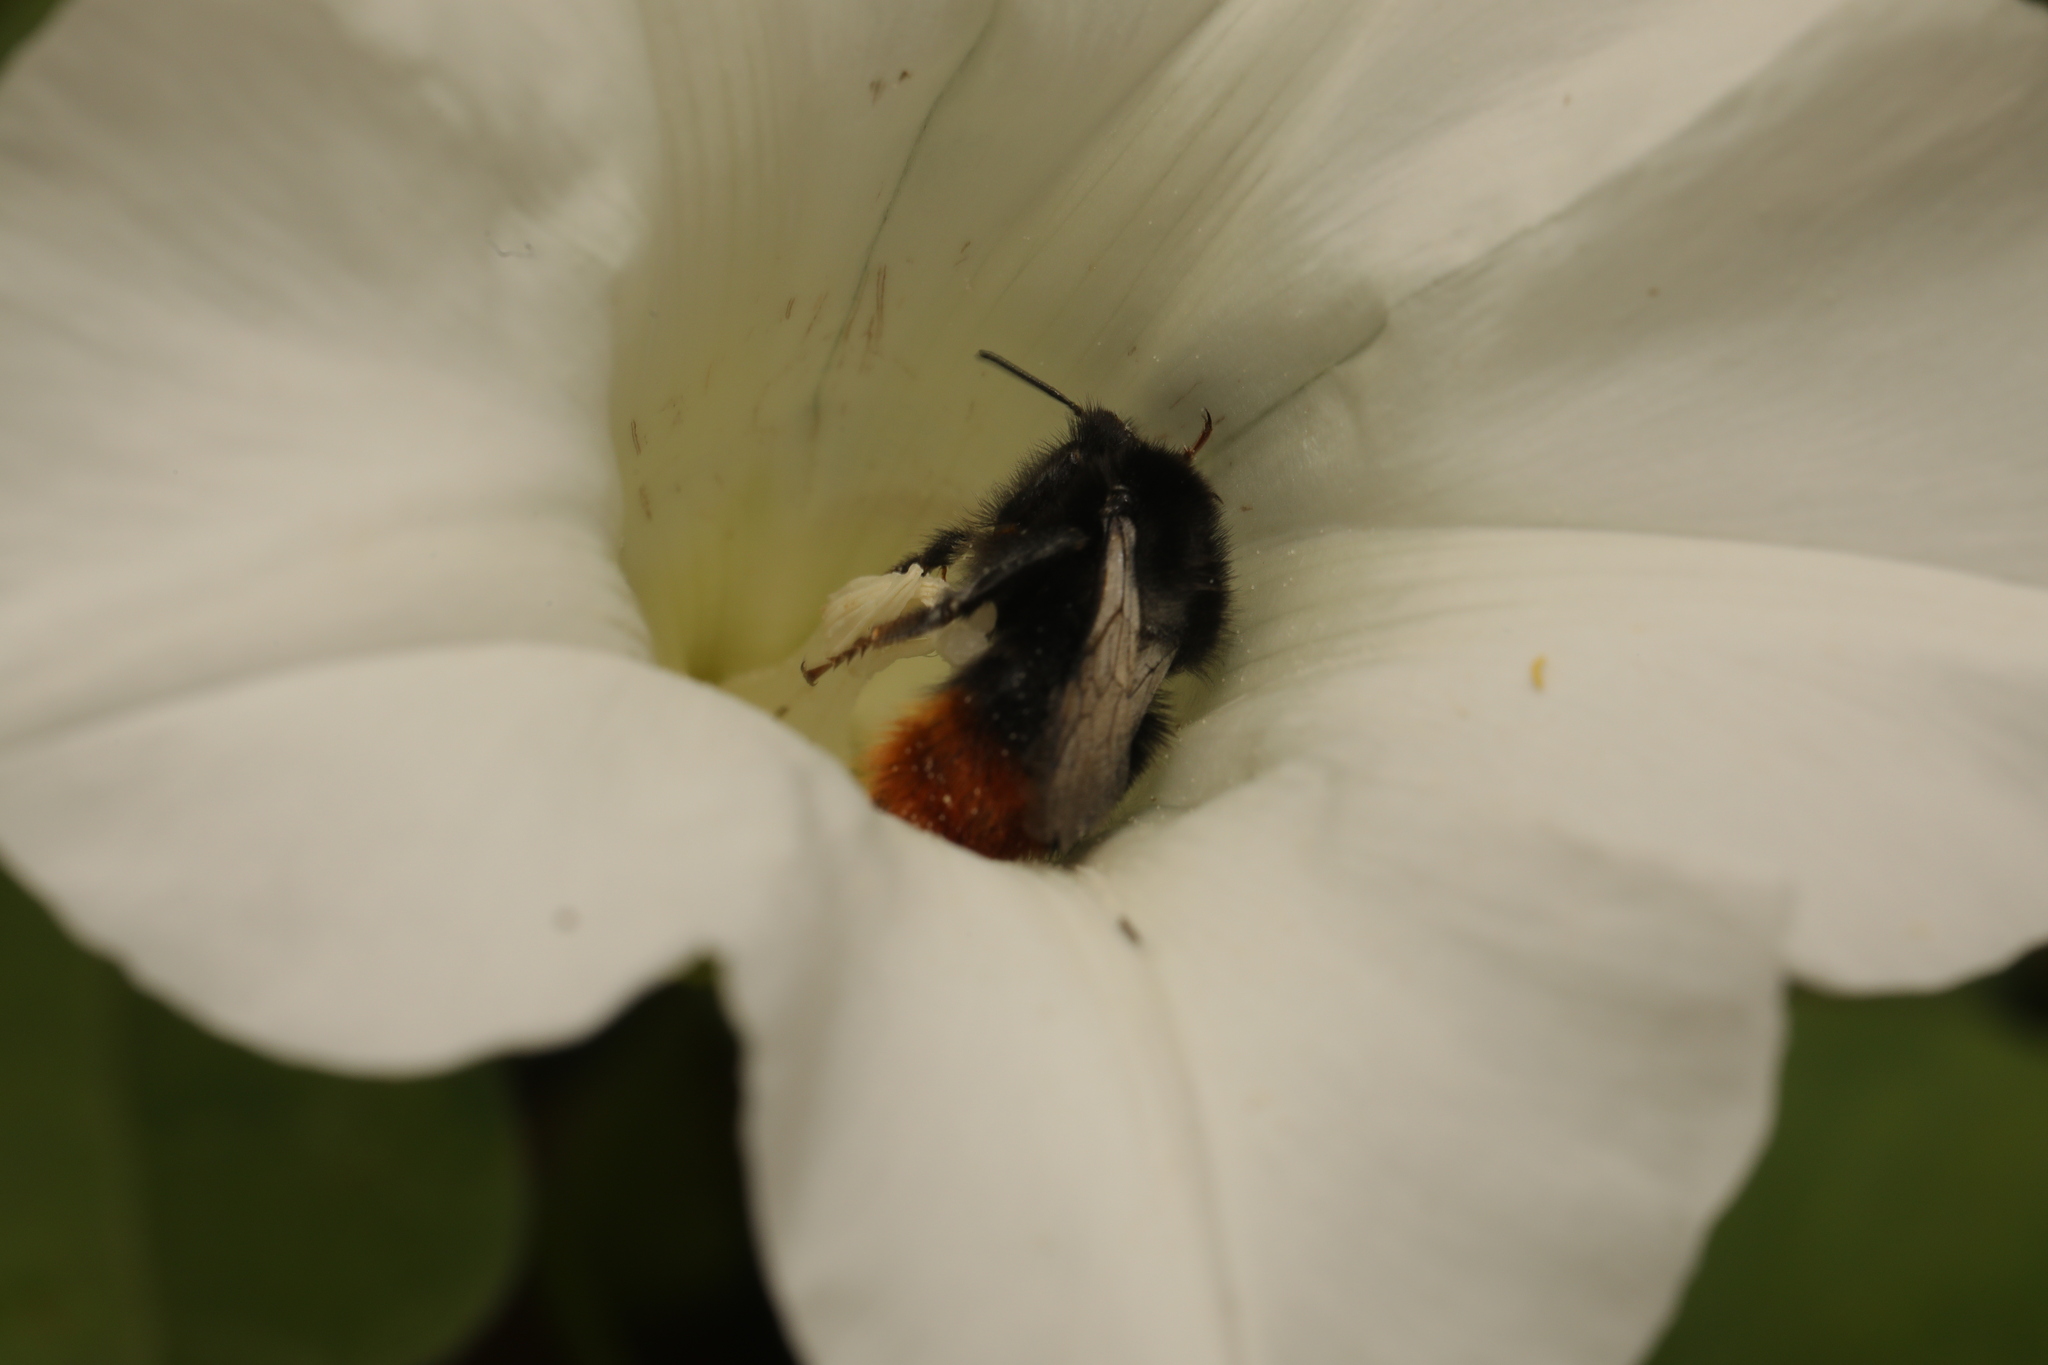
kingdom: Animalia
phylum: Arthropoda
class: Insecta
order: Hymenoptera
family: Apidae
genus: Bombus
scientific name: Bombus lapidarius
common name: Large red-tailed humble-bee
